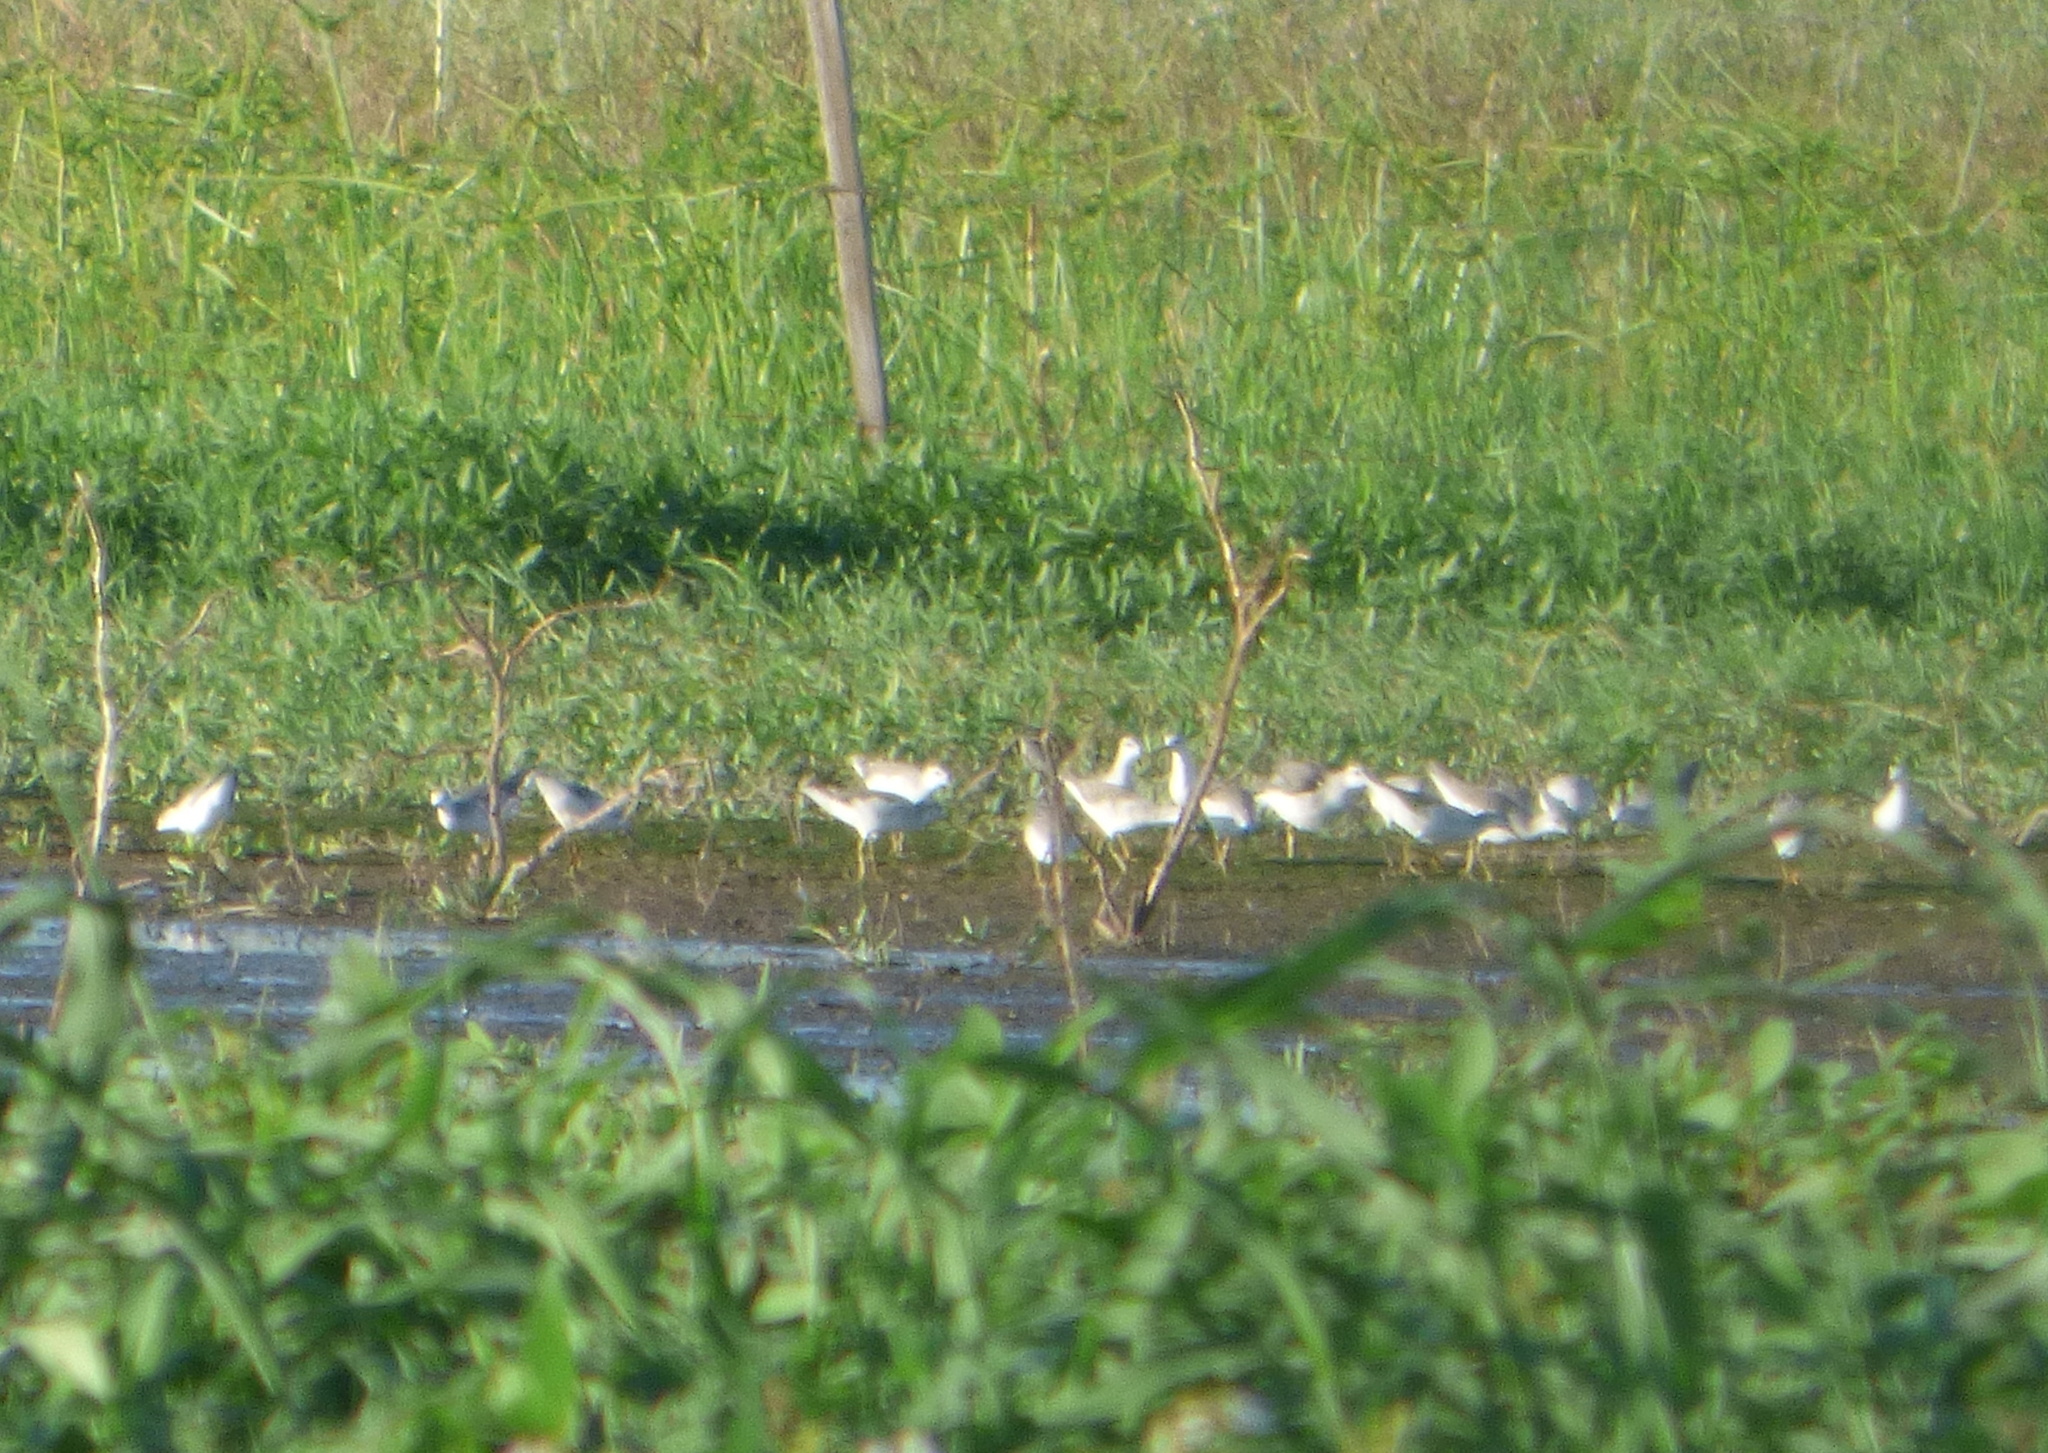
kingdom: Animalia
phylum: Chordata
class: Aves
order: Charadriiformes
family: Scolopacidae
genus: Phalaropus
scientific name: Phalaropus tricolor
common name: Wilson's phalarope
